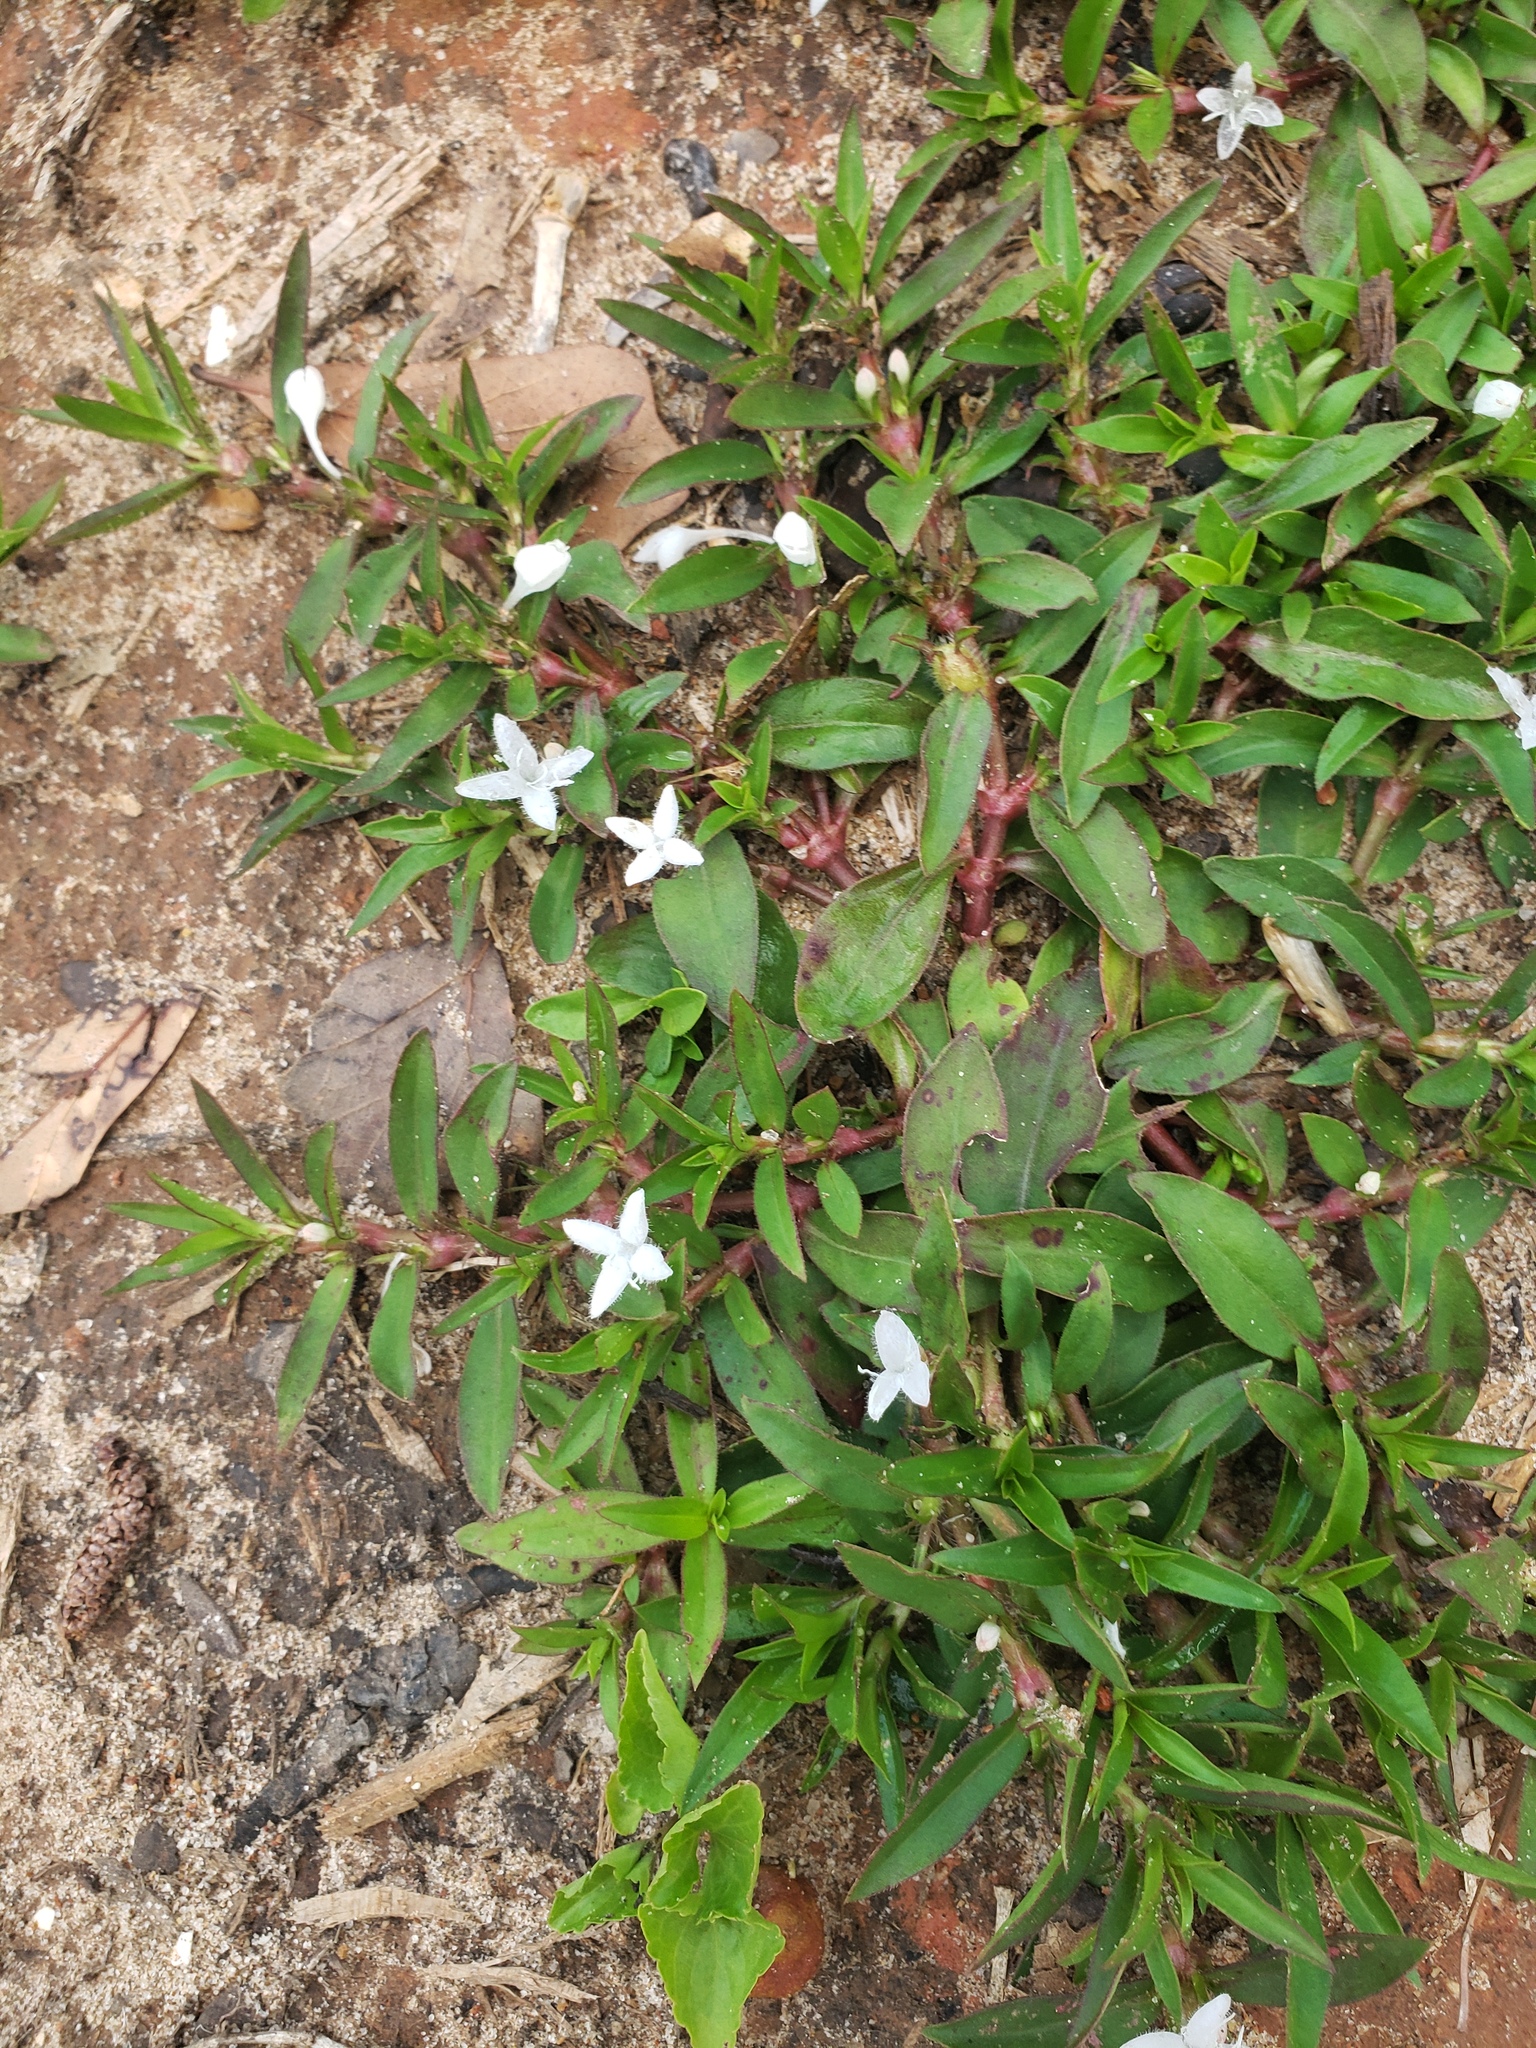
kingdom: Plantae
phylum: Tracheophyta
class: Magnoliopsida
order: Gentianales
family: Rubiaceae
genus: Diodia
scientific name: Diodia virginiana
